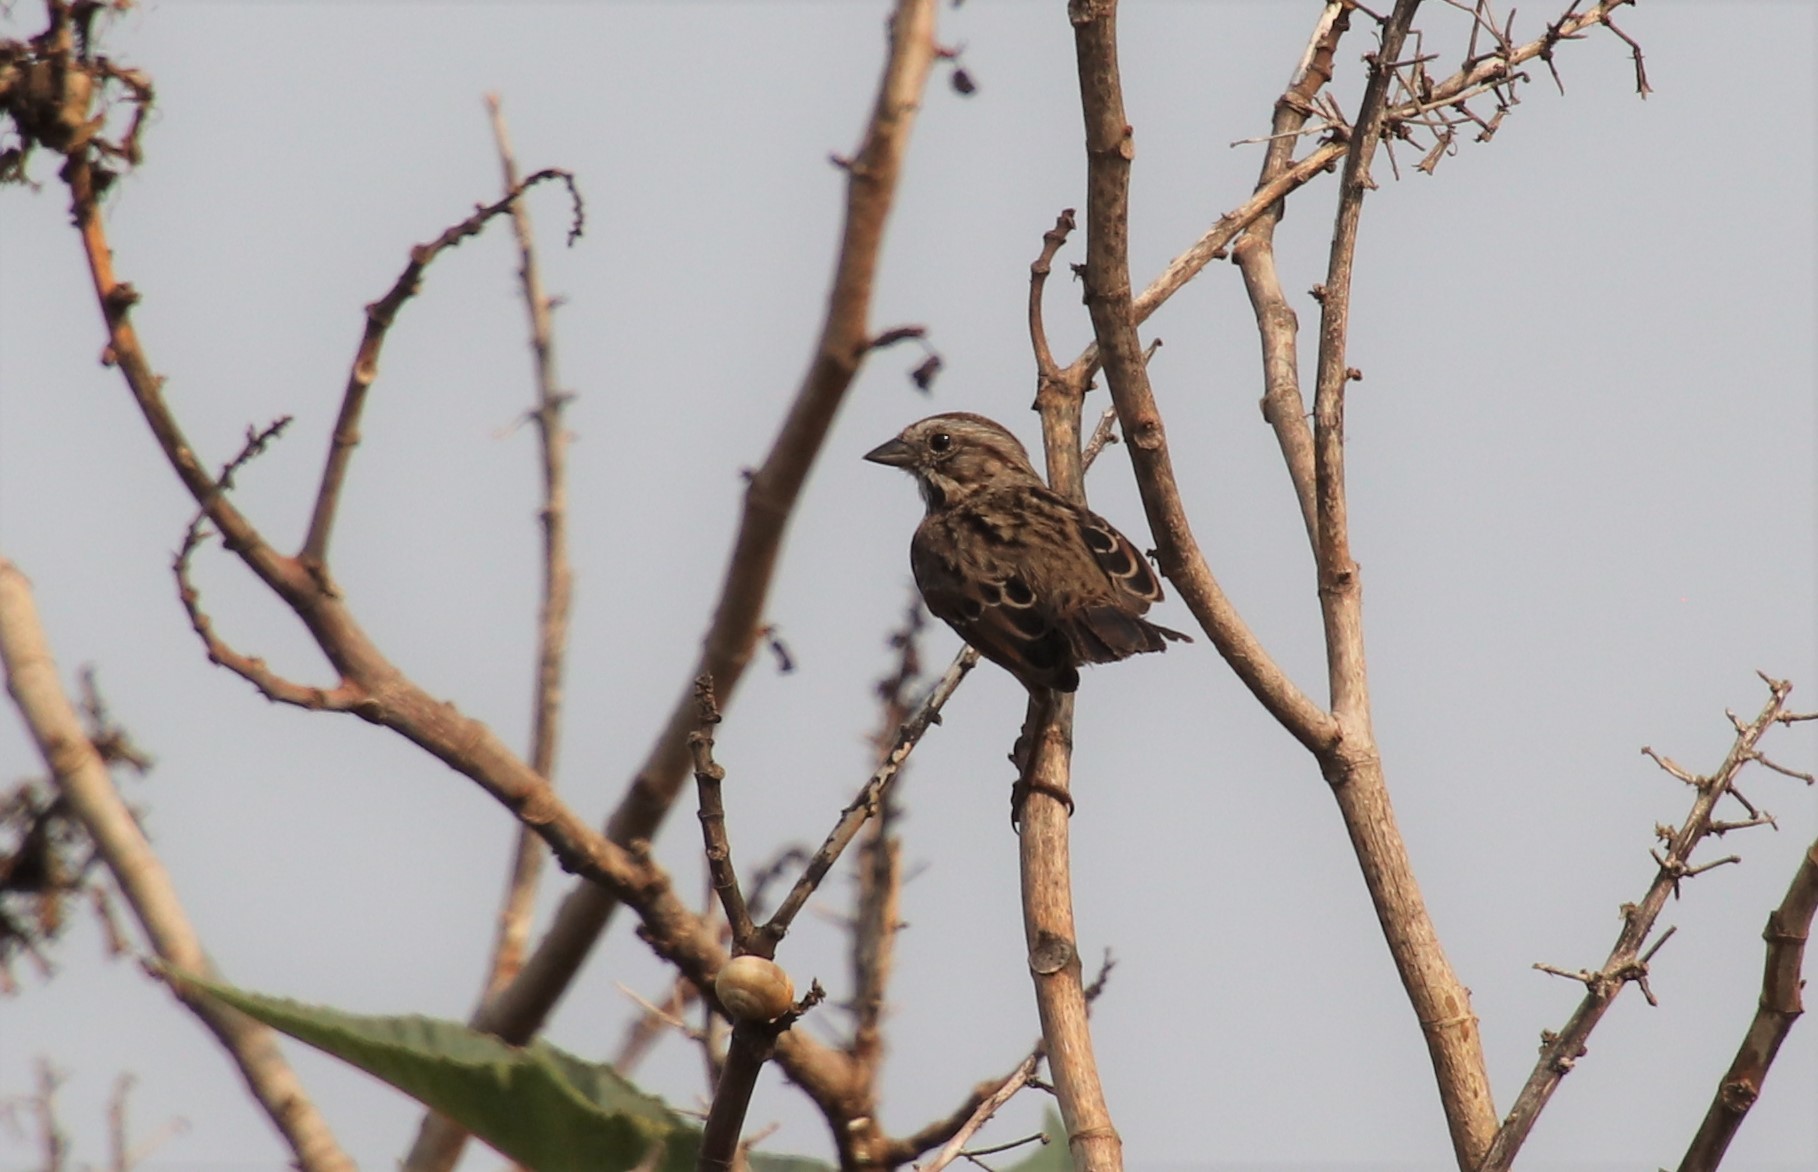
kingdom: Animalia
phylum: Chordata
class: Aves
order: Passeriformes
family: Passerellidae
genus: Melospiza
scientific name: Melospiza melodia
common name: Song sparrow
